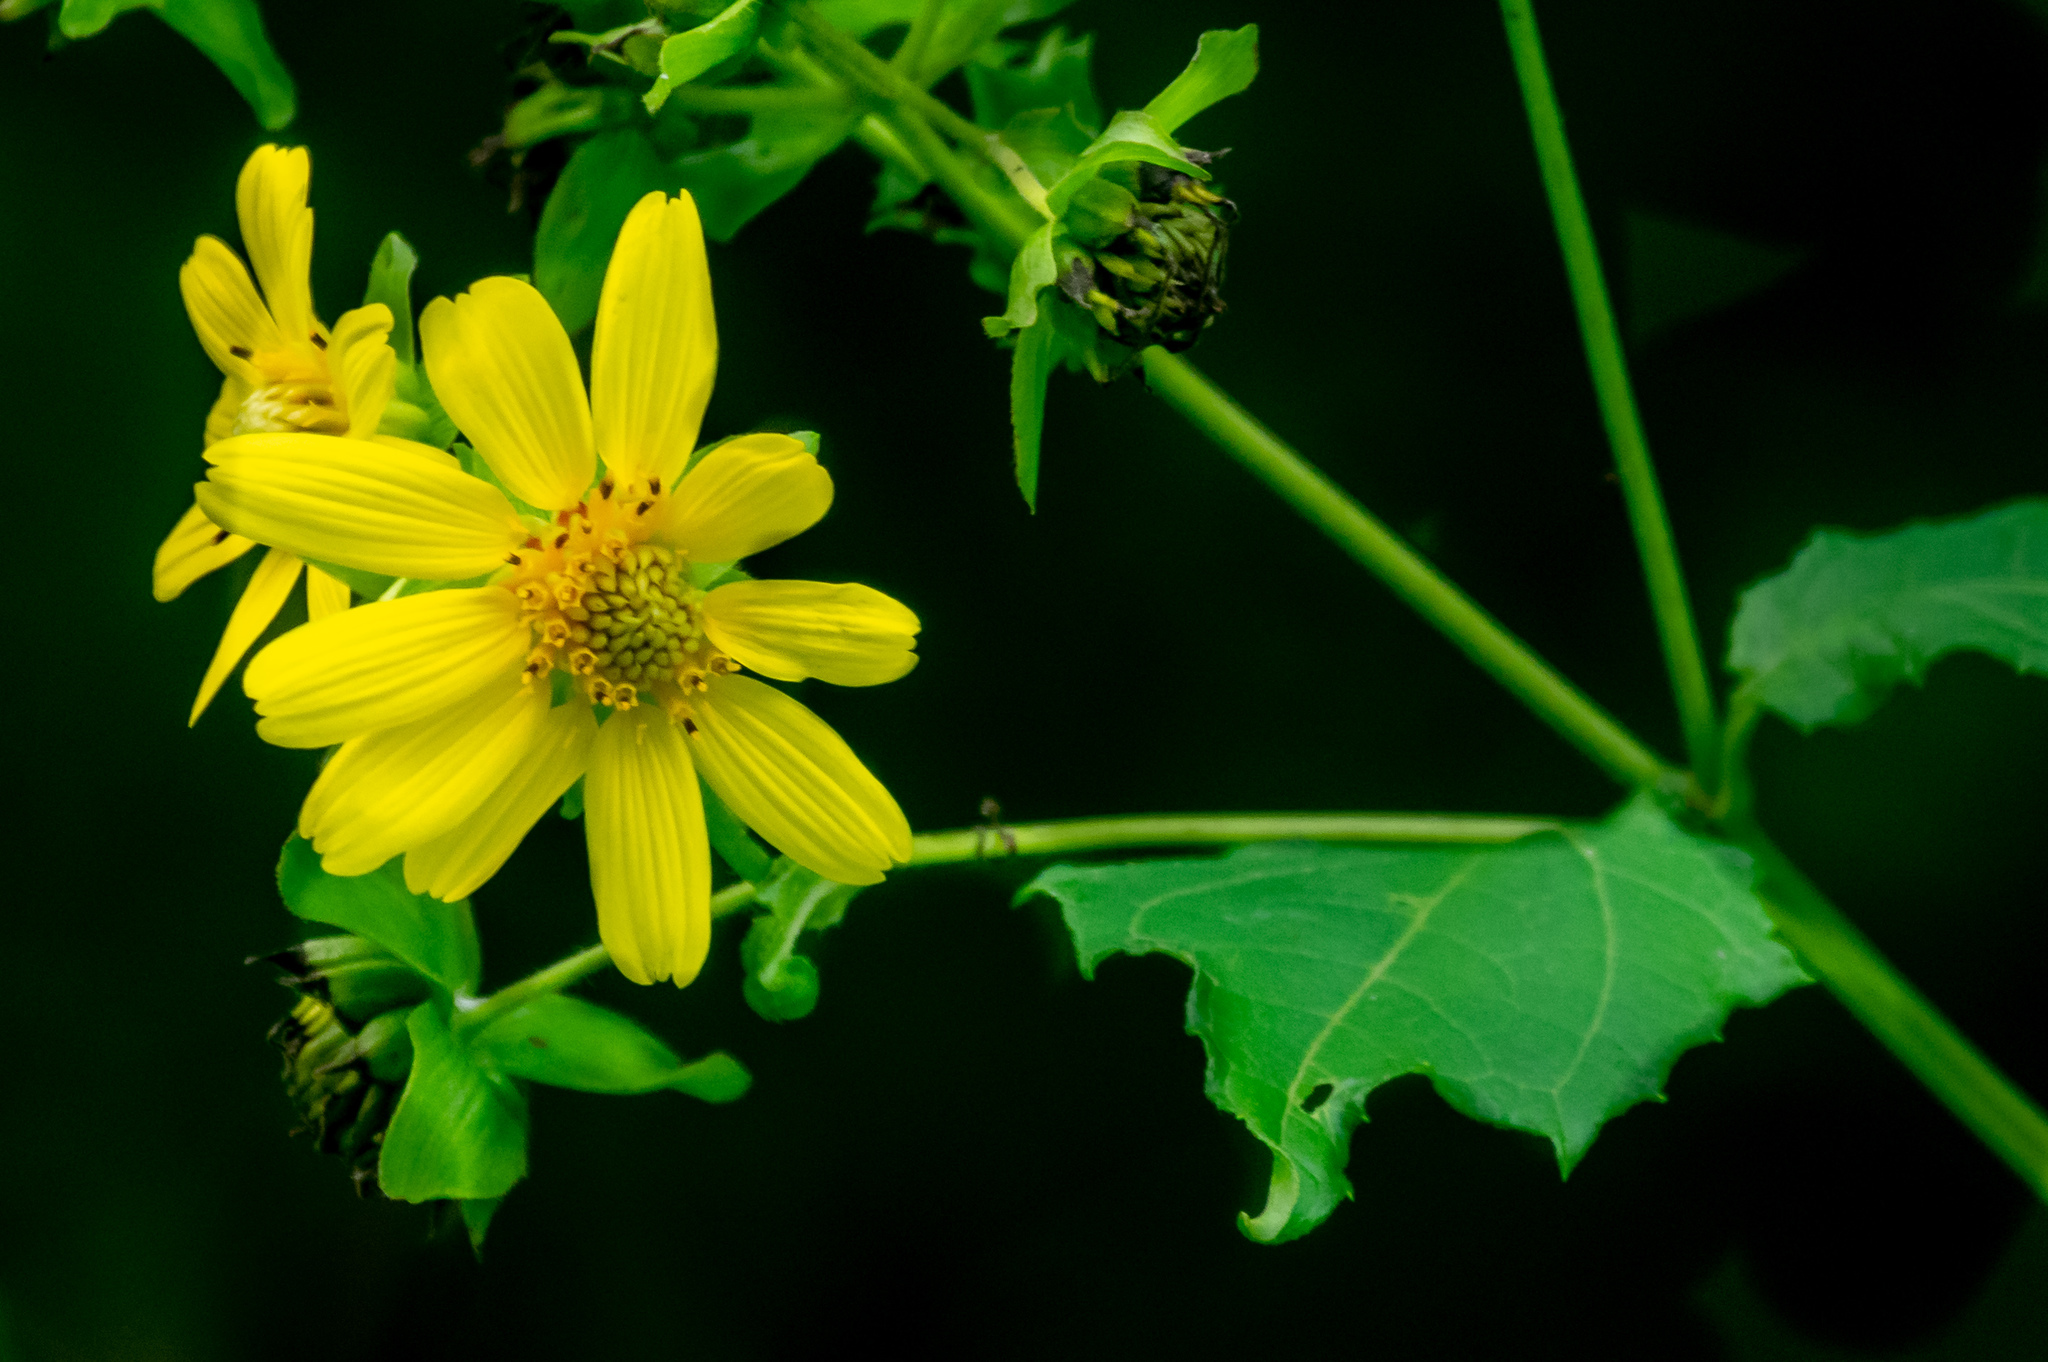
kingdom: Plantae
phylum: Tracheophyta
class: Magnoliopsida
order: Asterales
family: Asteraceae
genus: Smallanthus
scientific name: Smallanthus uvedalia
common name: Bear's-foot
